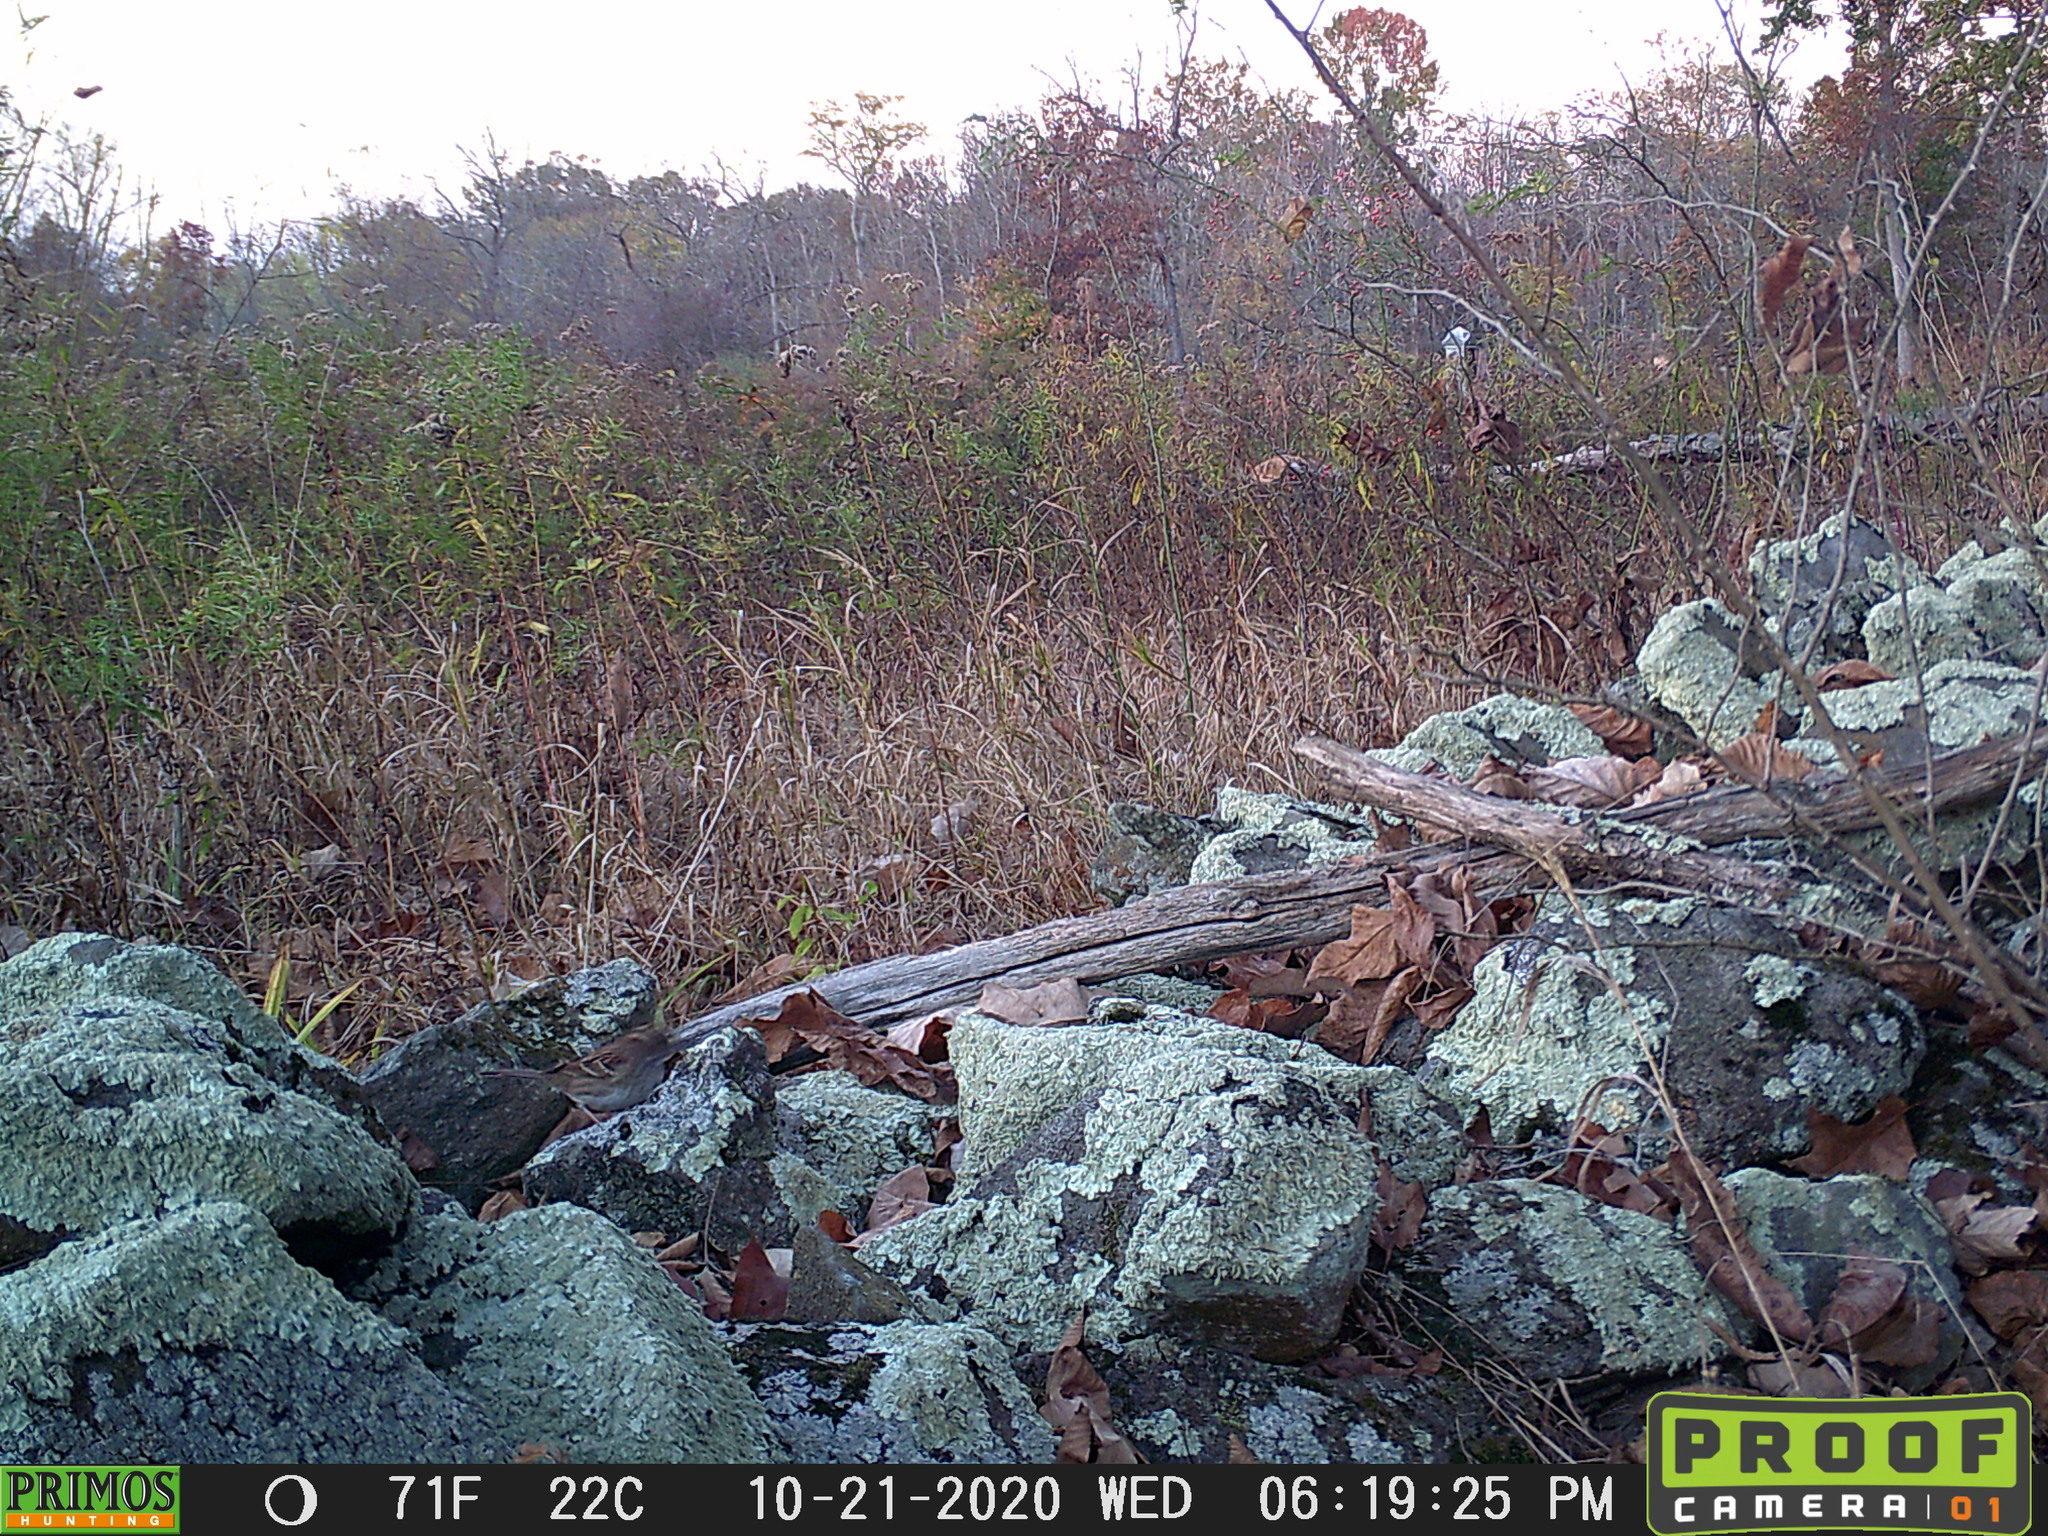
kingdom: Animalia
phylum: Chordata
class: Aves
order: Passeriformes
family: Passerellidae
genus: Zonotrichia
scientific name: Zonotrichia albicollis
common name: White-throated sparrow
